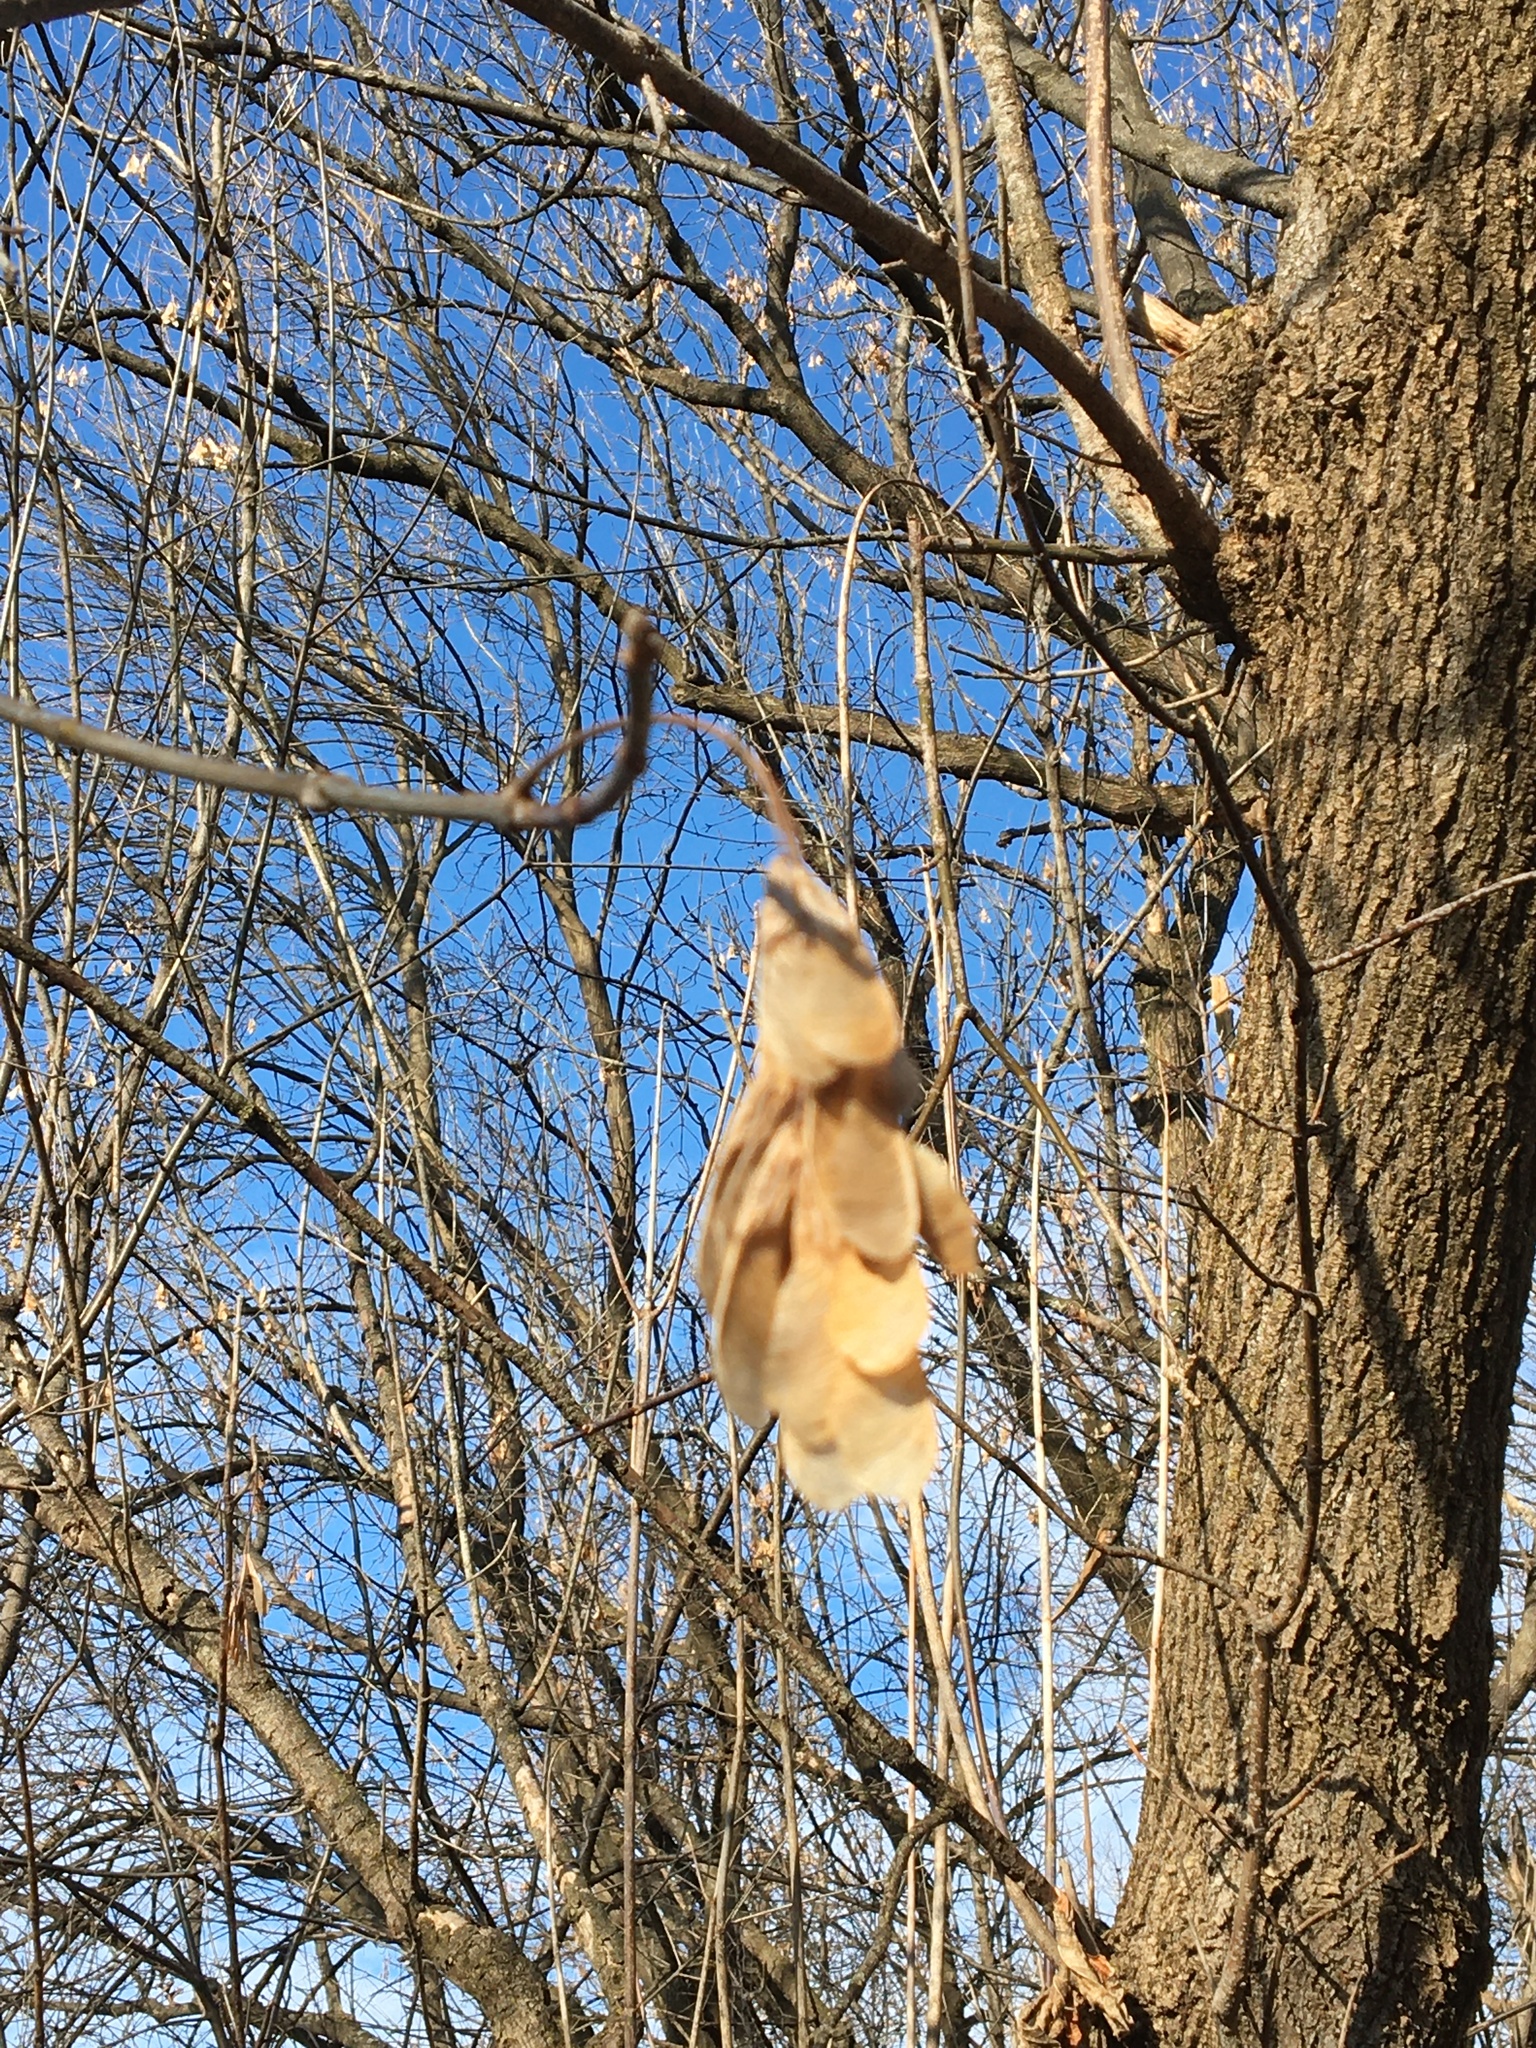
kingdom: Plantae
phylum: Tracheophyta
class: Magnoliopsida
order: Sapindales
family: Sapindaceae
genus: Acer
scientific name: Acer negundo
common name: Ashleaf maple
